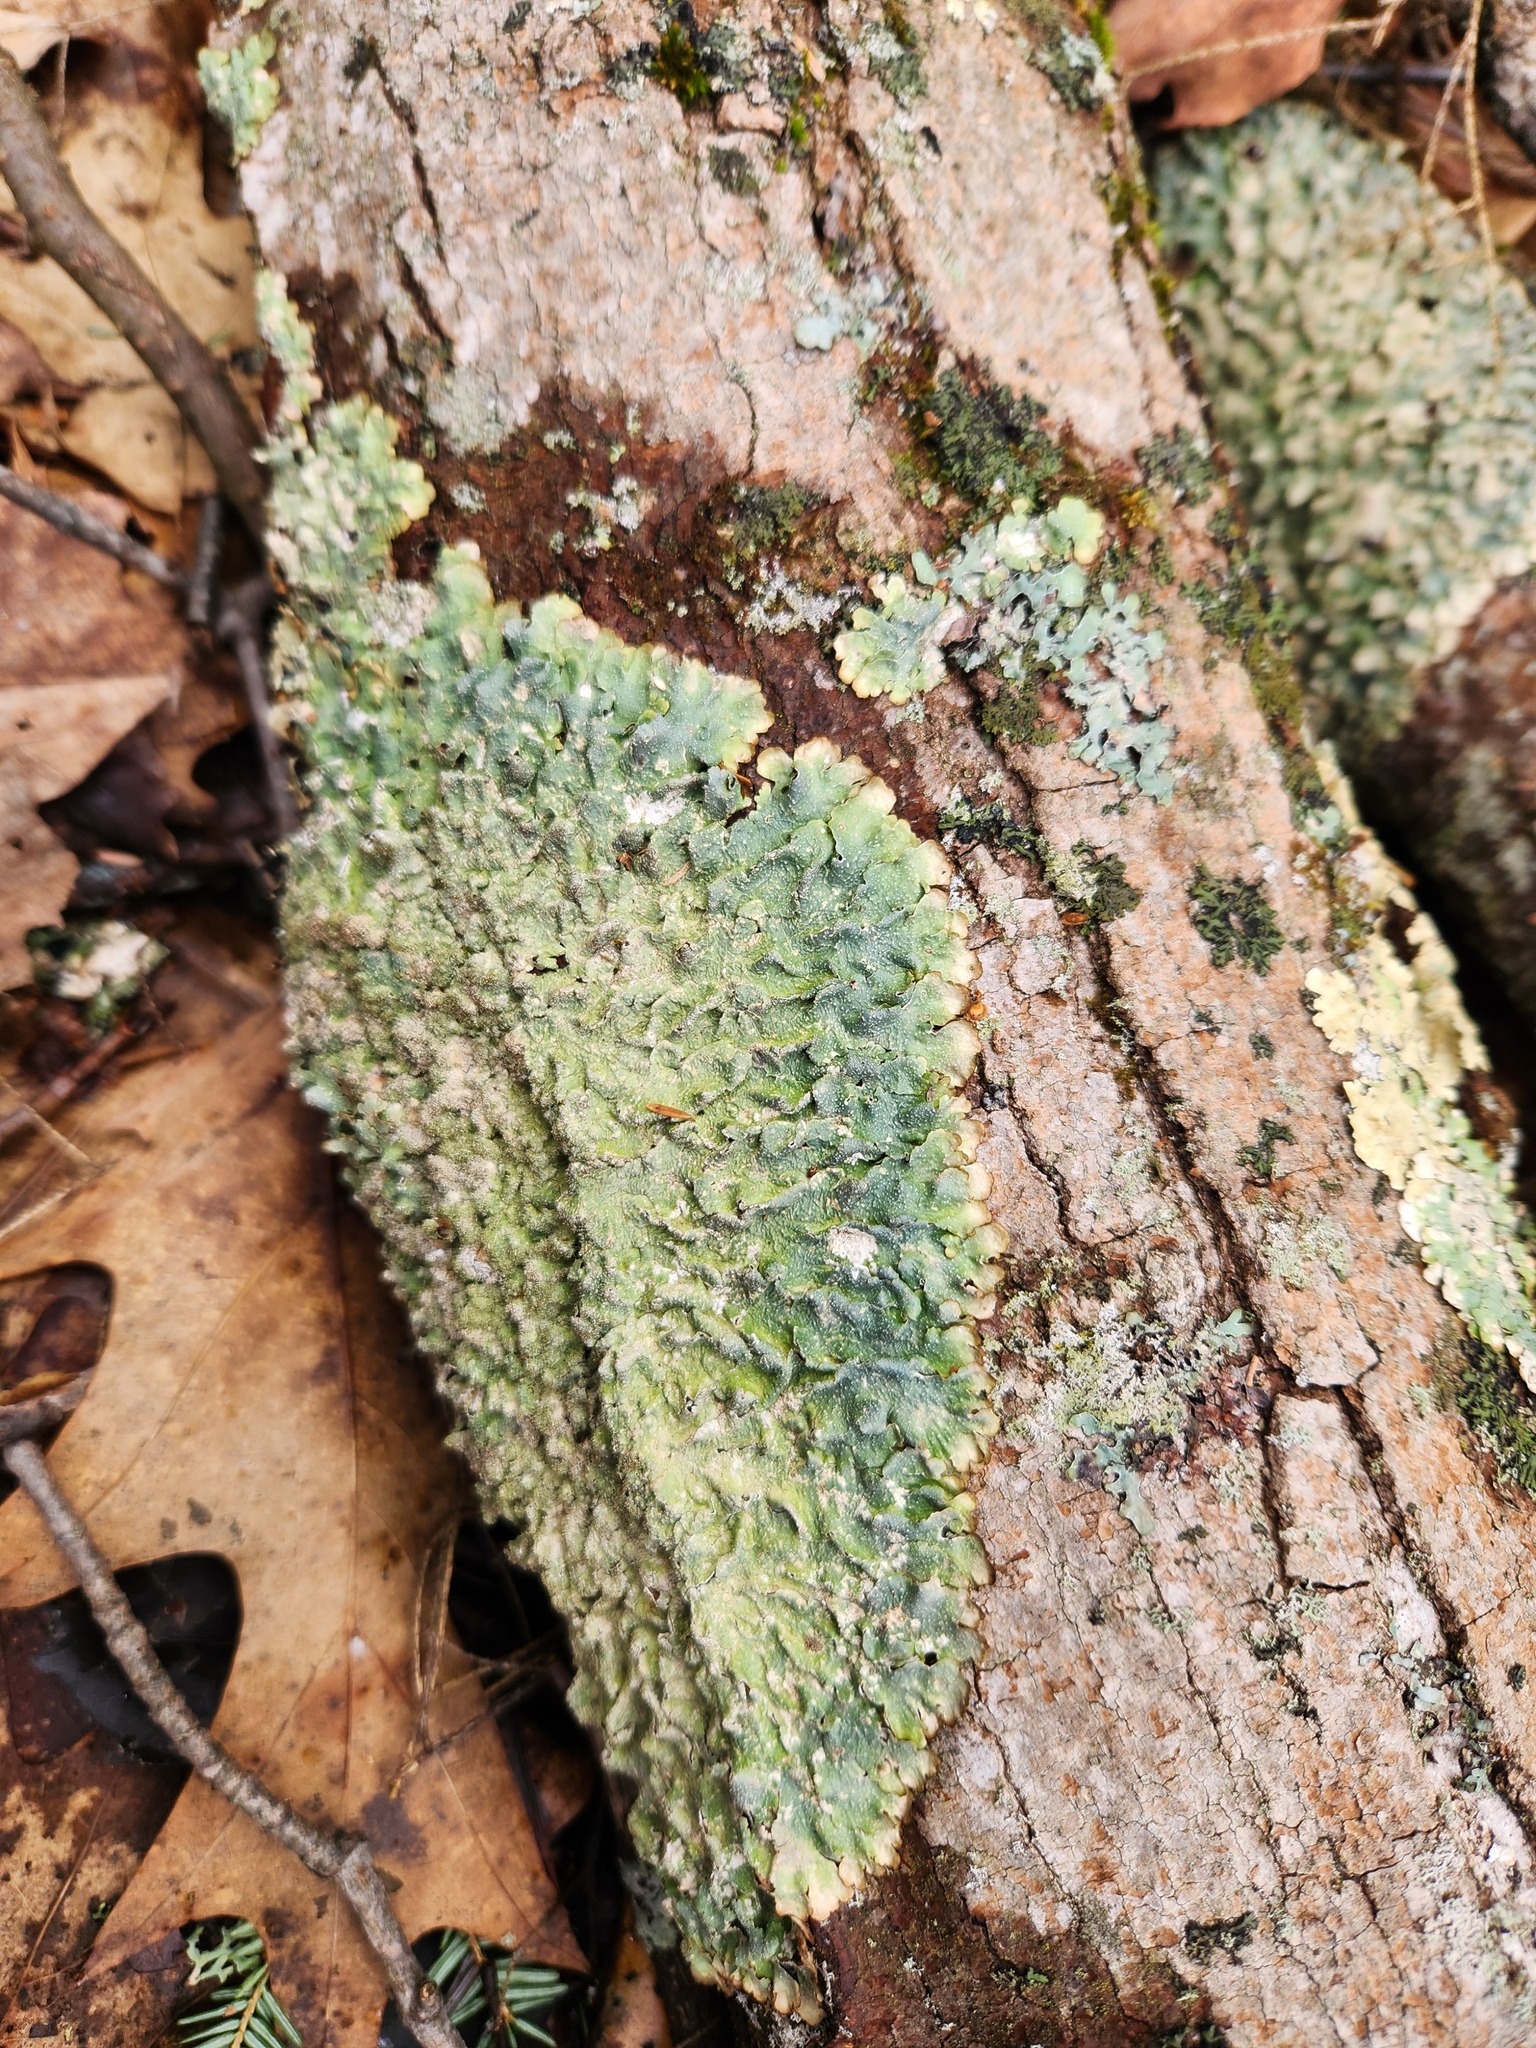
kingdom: Fungi
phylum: Ascomycota
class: Lecanoromycetes
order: Lecanorales
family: Parmeliaceae
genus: Punctelia
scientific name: Punctelia rudecta
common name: Rough speckled shield lichen
